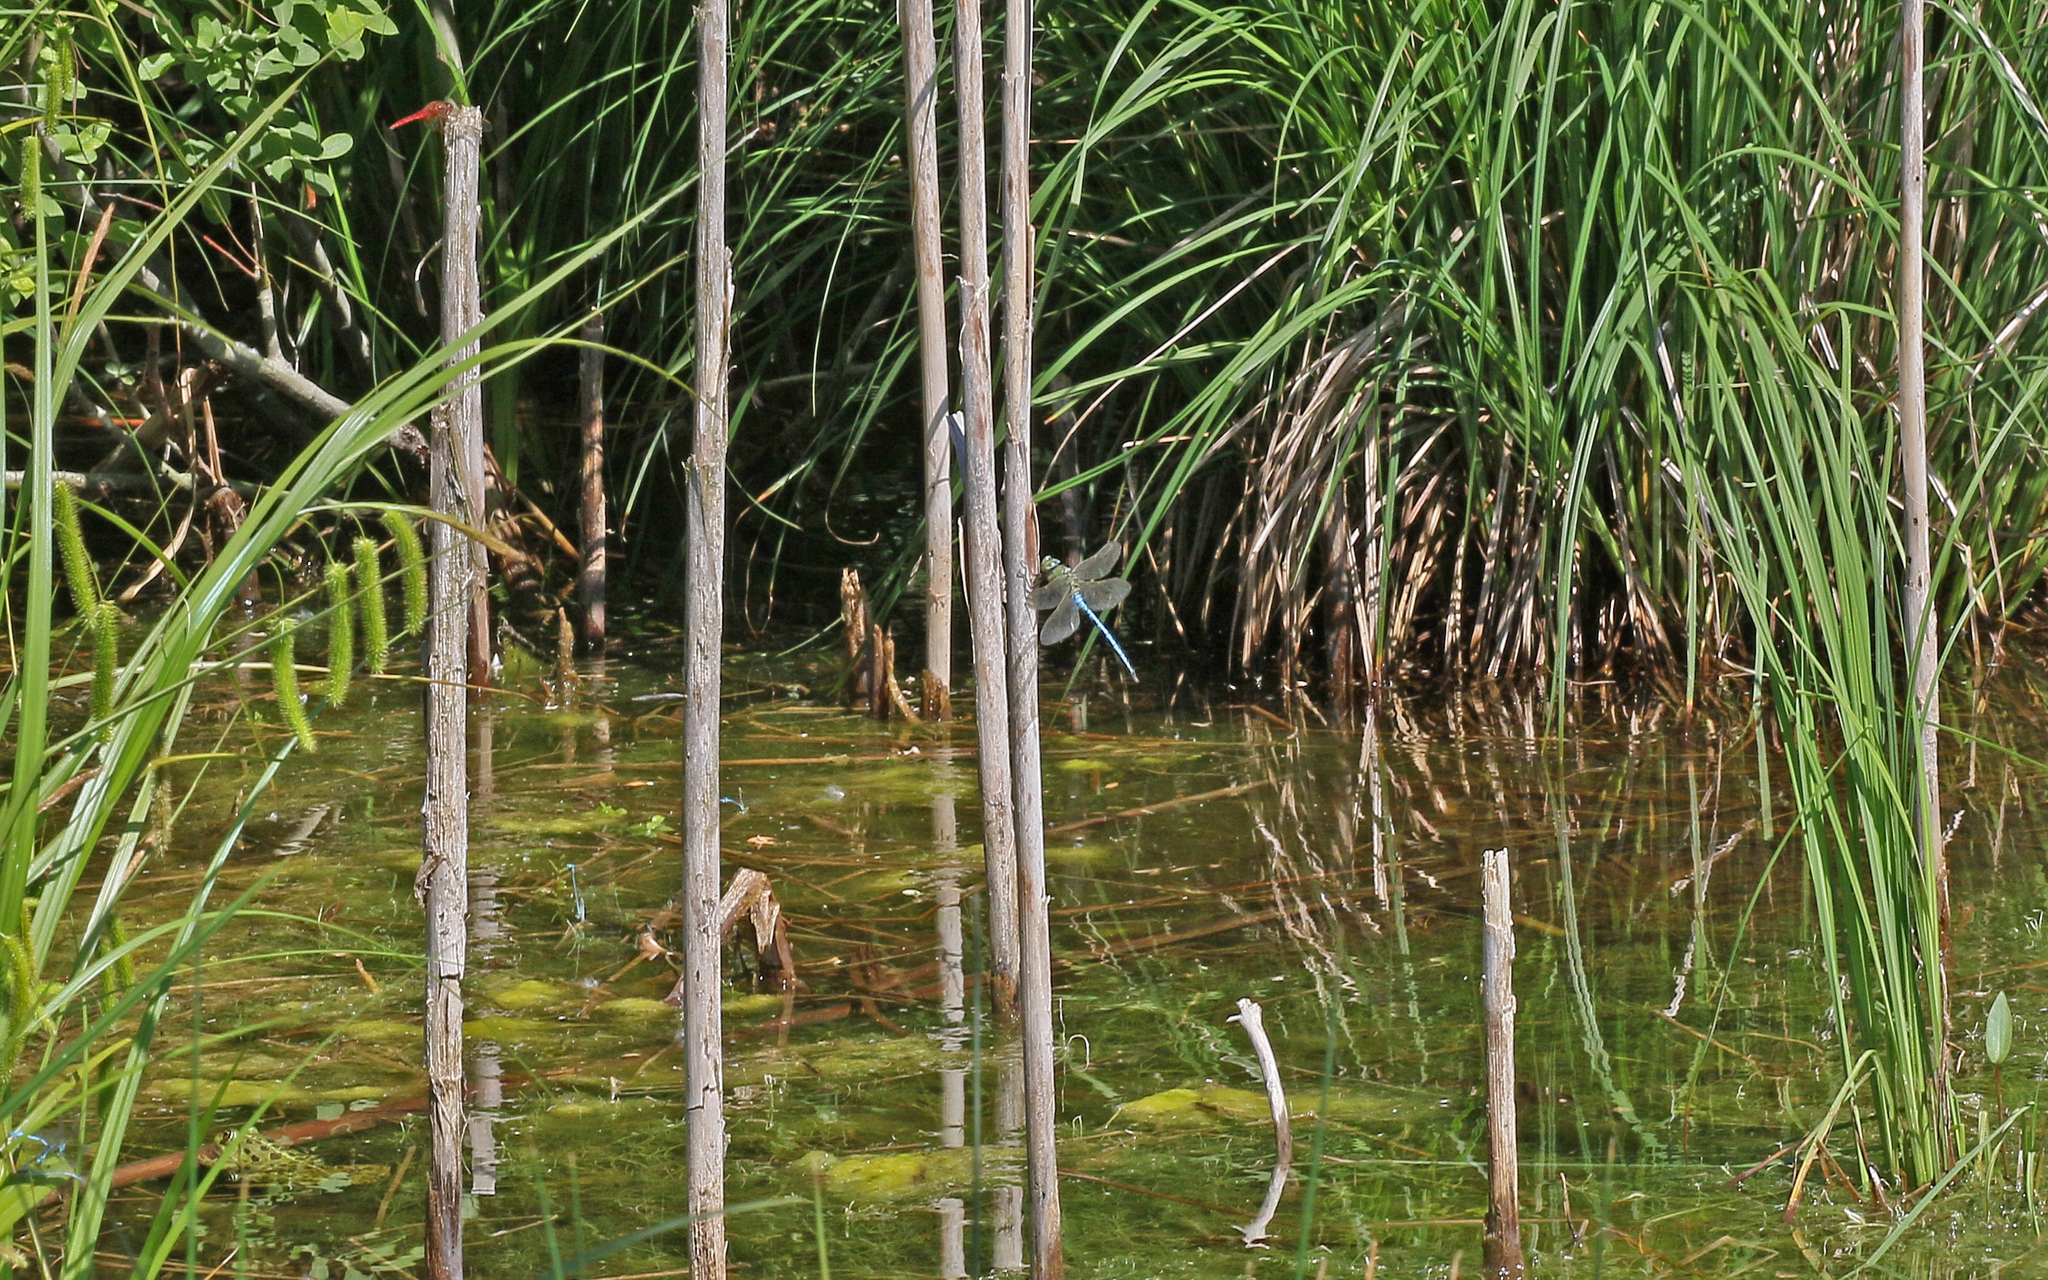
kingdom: Animalia
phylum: Arthropoda
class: Insecta
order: Odonata
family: Aeshnidae
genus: Anax
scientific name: Anax imperator
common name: Emperor dragonfly
